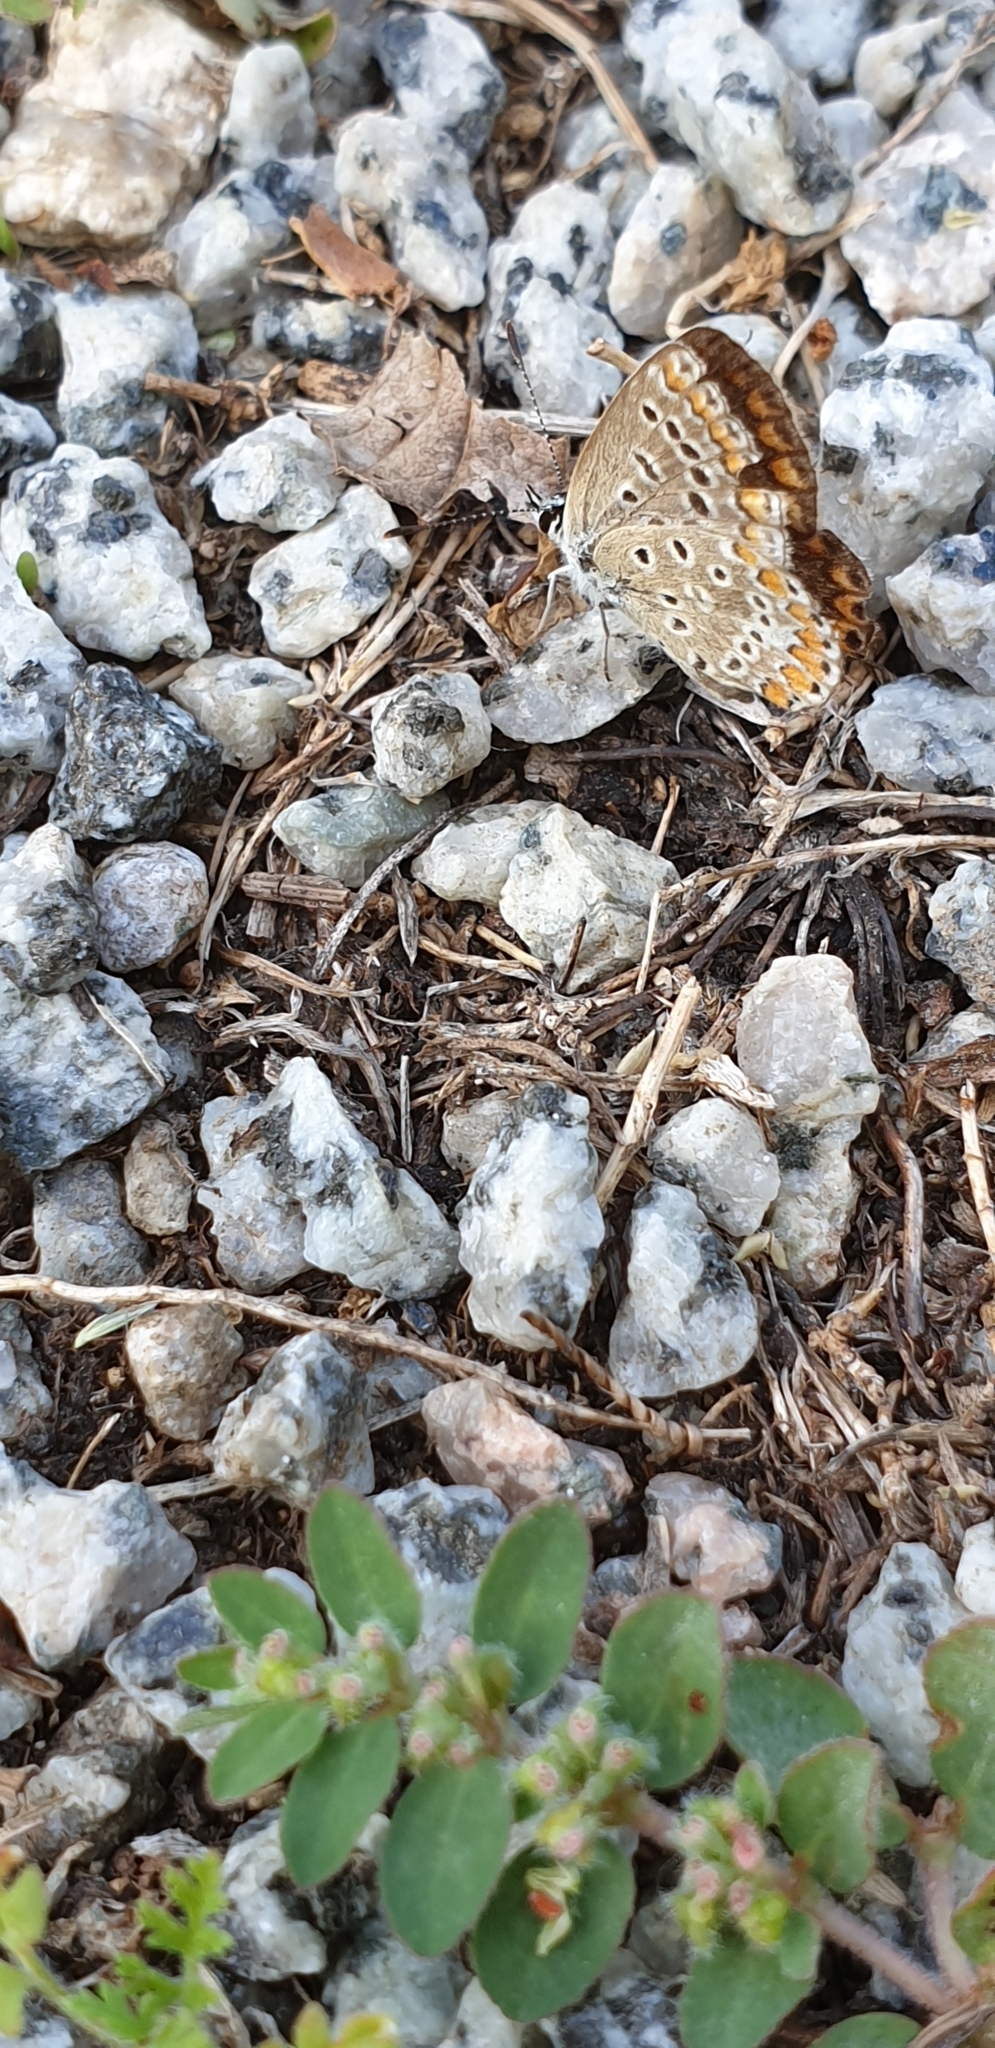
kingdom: Animalia
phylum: Arthropoda
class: Insecta
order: Lepidoptera
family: Lycaenidae
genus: Polyommatus
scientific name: Polyommatus icarus
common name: Common blue
